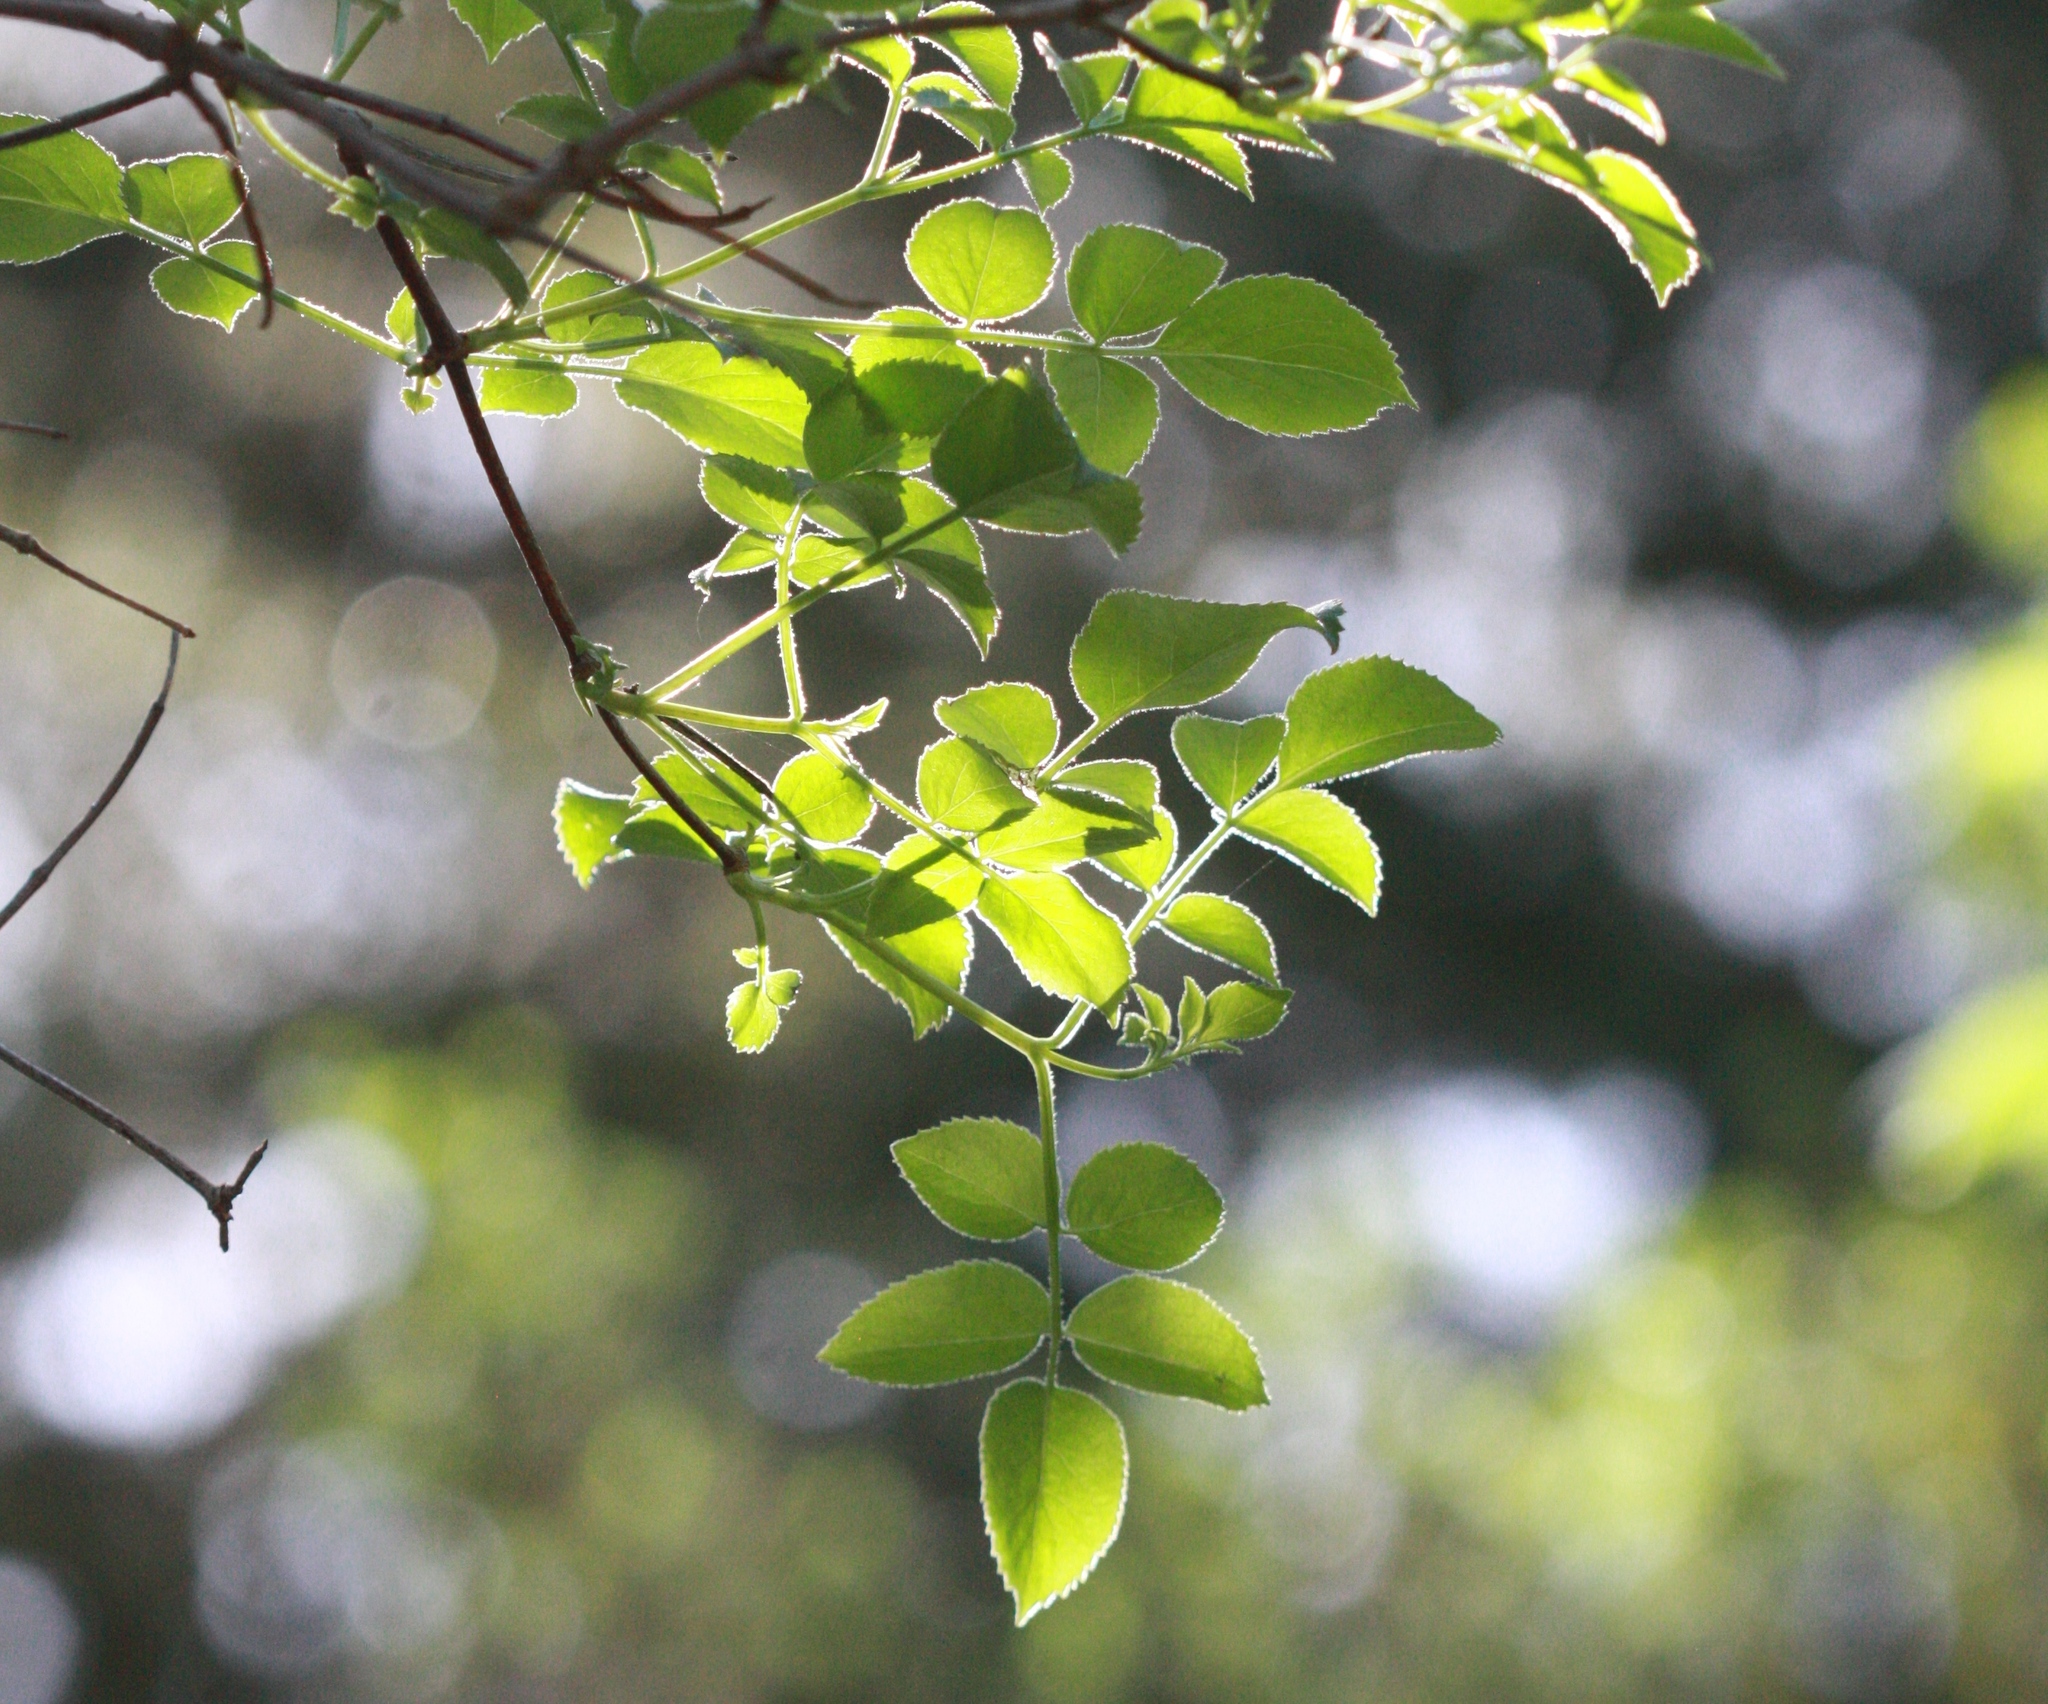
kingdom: Plantae
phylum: Tracheophyta
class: Magnoliopsida
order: Dipsacales
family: Viburnaceae
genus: Sambucus
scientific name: Sambucus cerulea
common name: Blue elder
